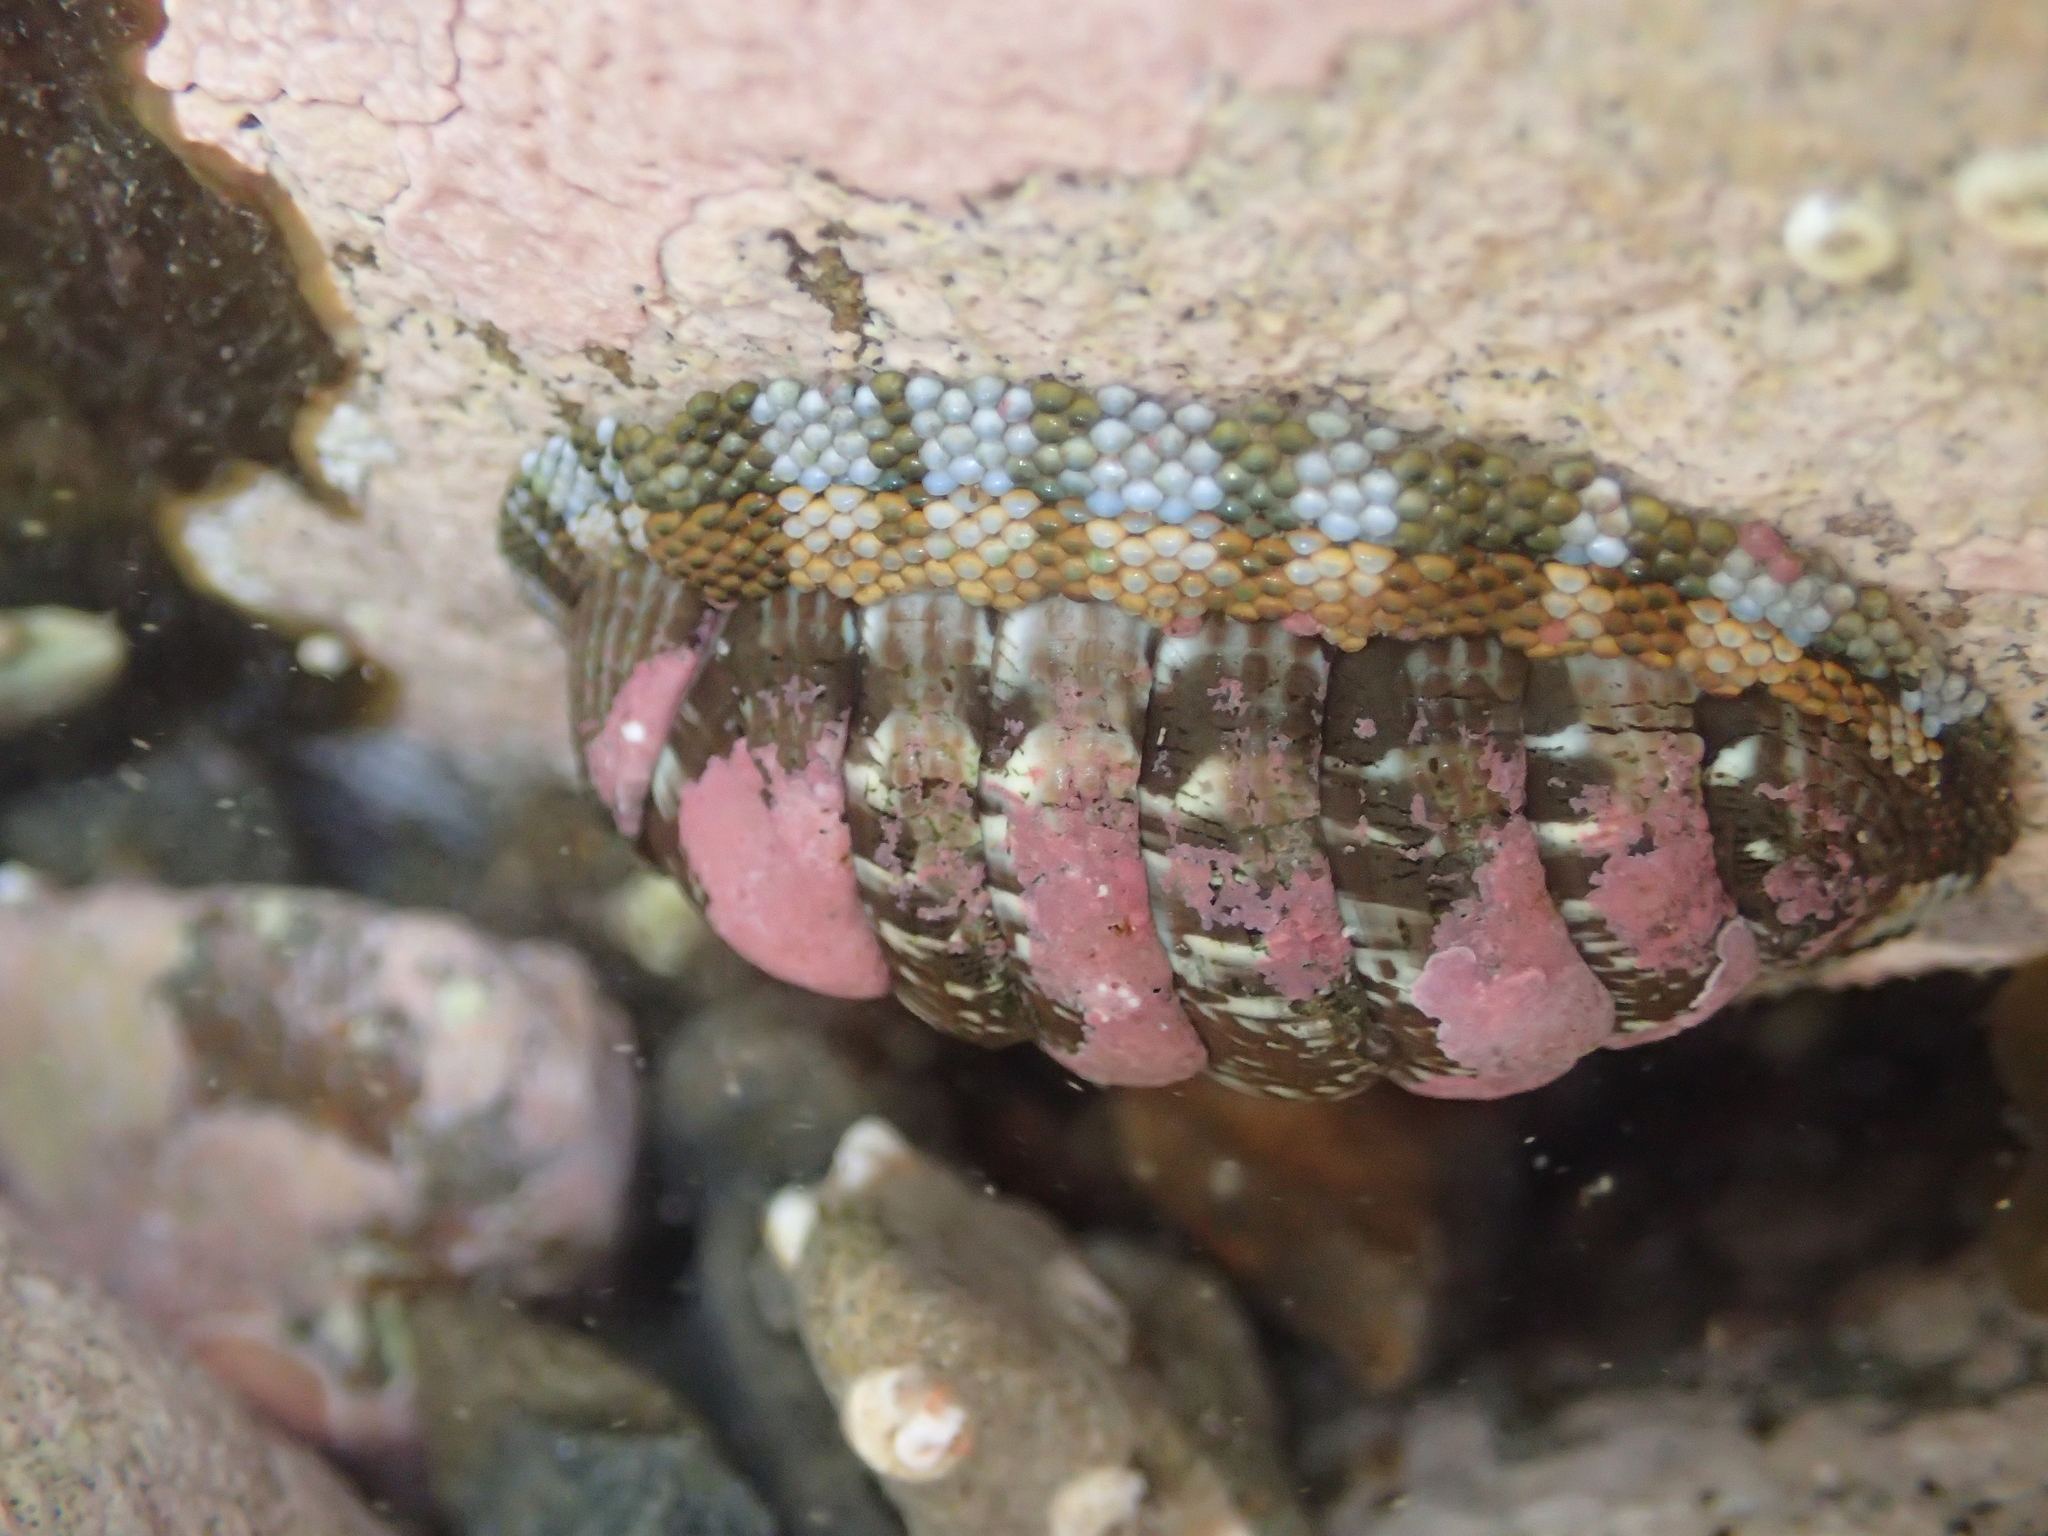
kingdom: Animalia
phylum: Mollusca
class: Polyplacophora
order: Chitonida
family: Chitonidae
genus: Sypharochiton
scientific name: Sypharochiton sinclairi
